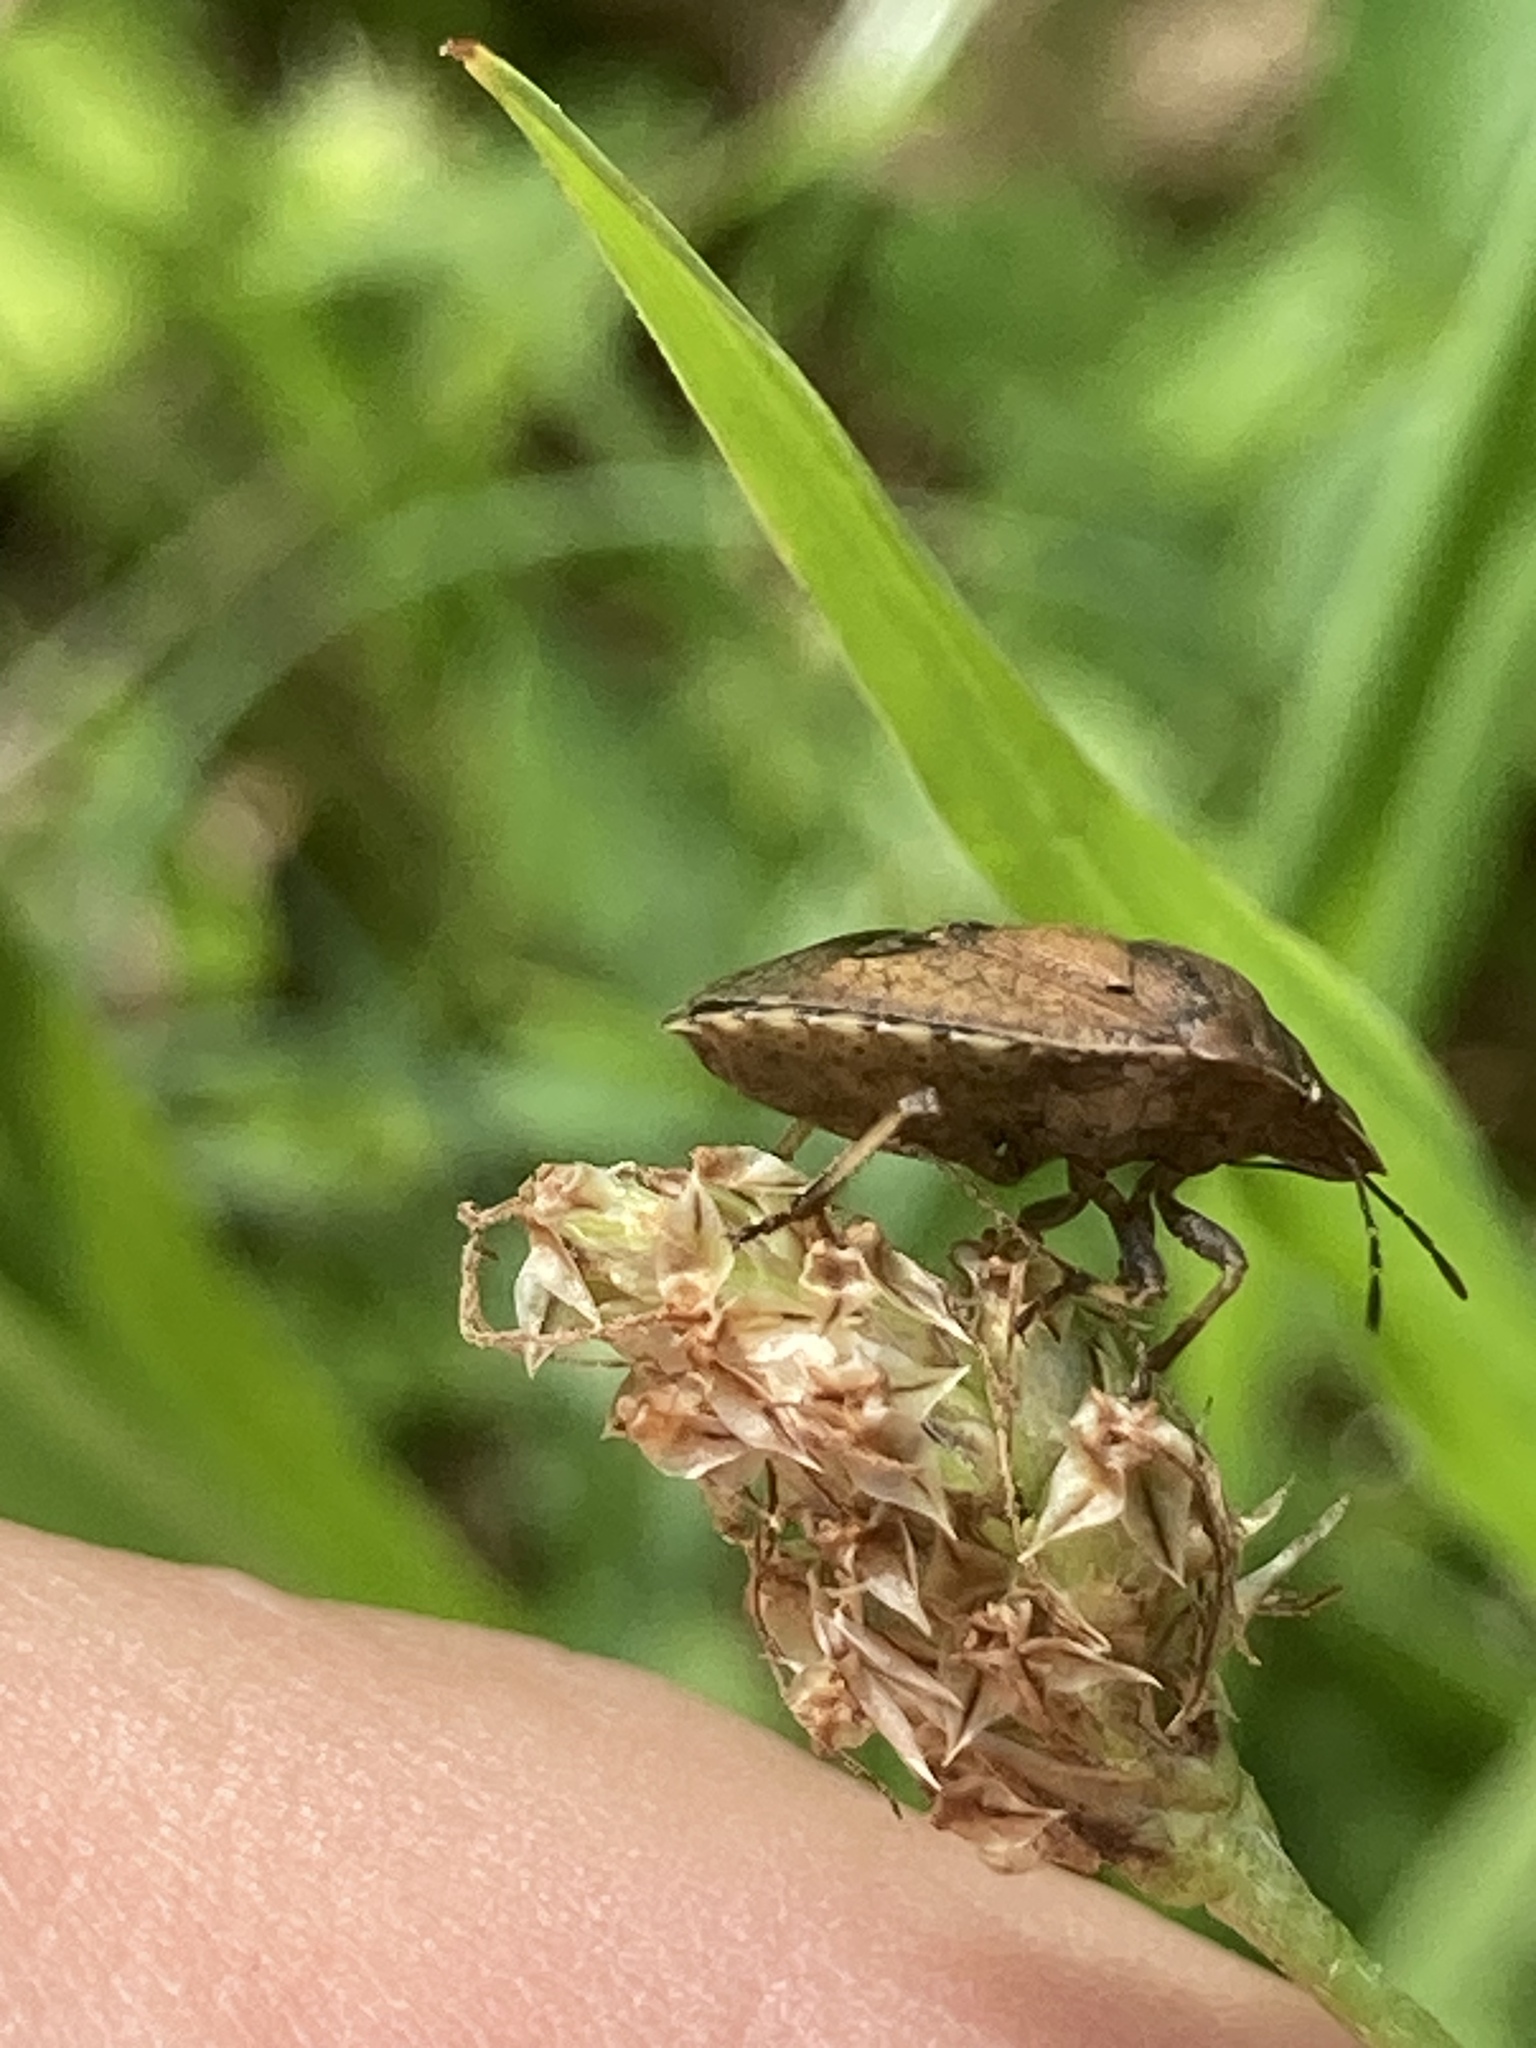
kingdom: Animalia
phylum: Arthropoda
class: Insecta
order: Hemiptera
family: Pentatomidae
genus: Dictyotus
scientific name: Dictyotus caenosus
